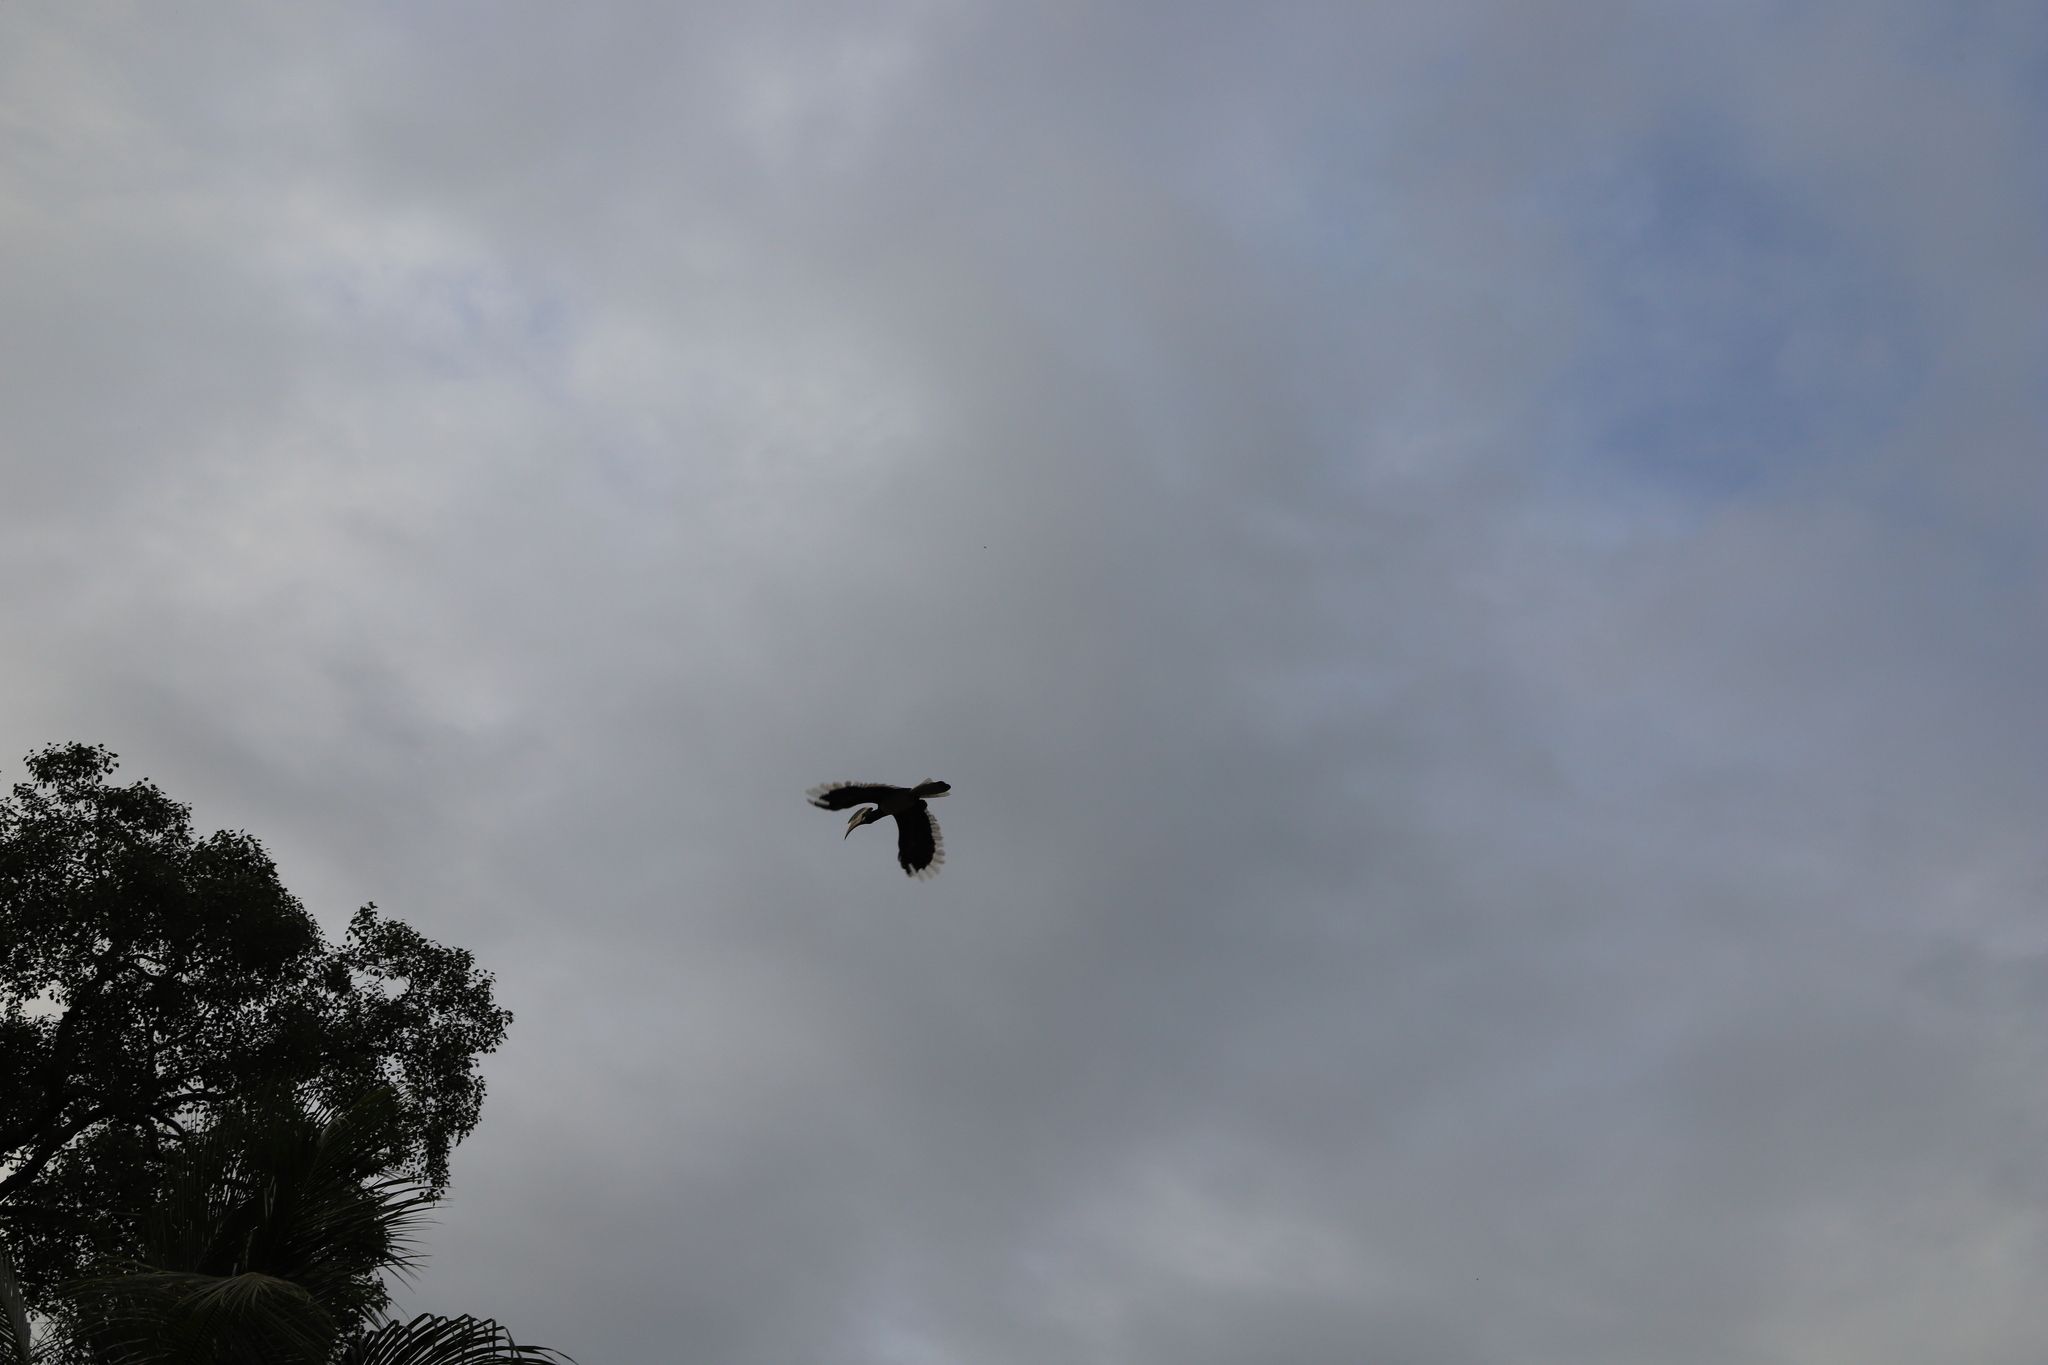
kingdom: Animalia
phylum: Chordata
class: Aves
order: Bucerotiformes
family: Bucerotidae
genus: Anthracoceros
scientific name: Anthracoceros coronatus
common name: Malabar pied hornbill
